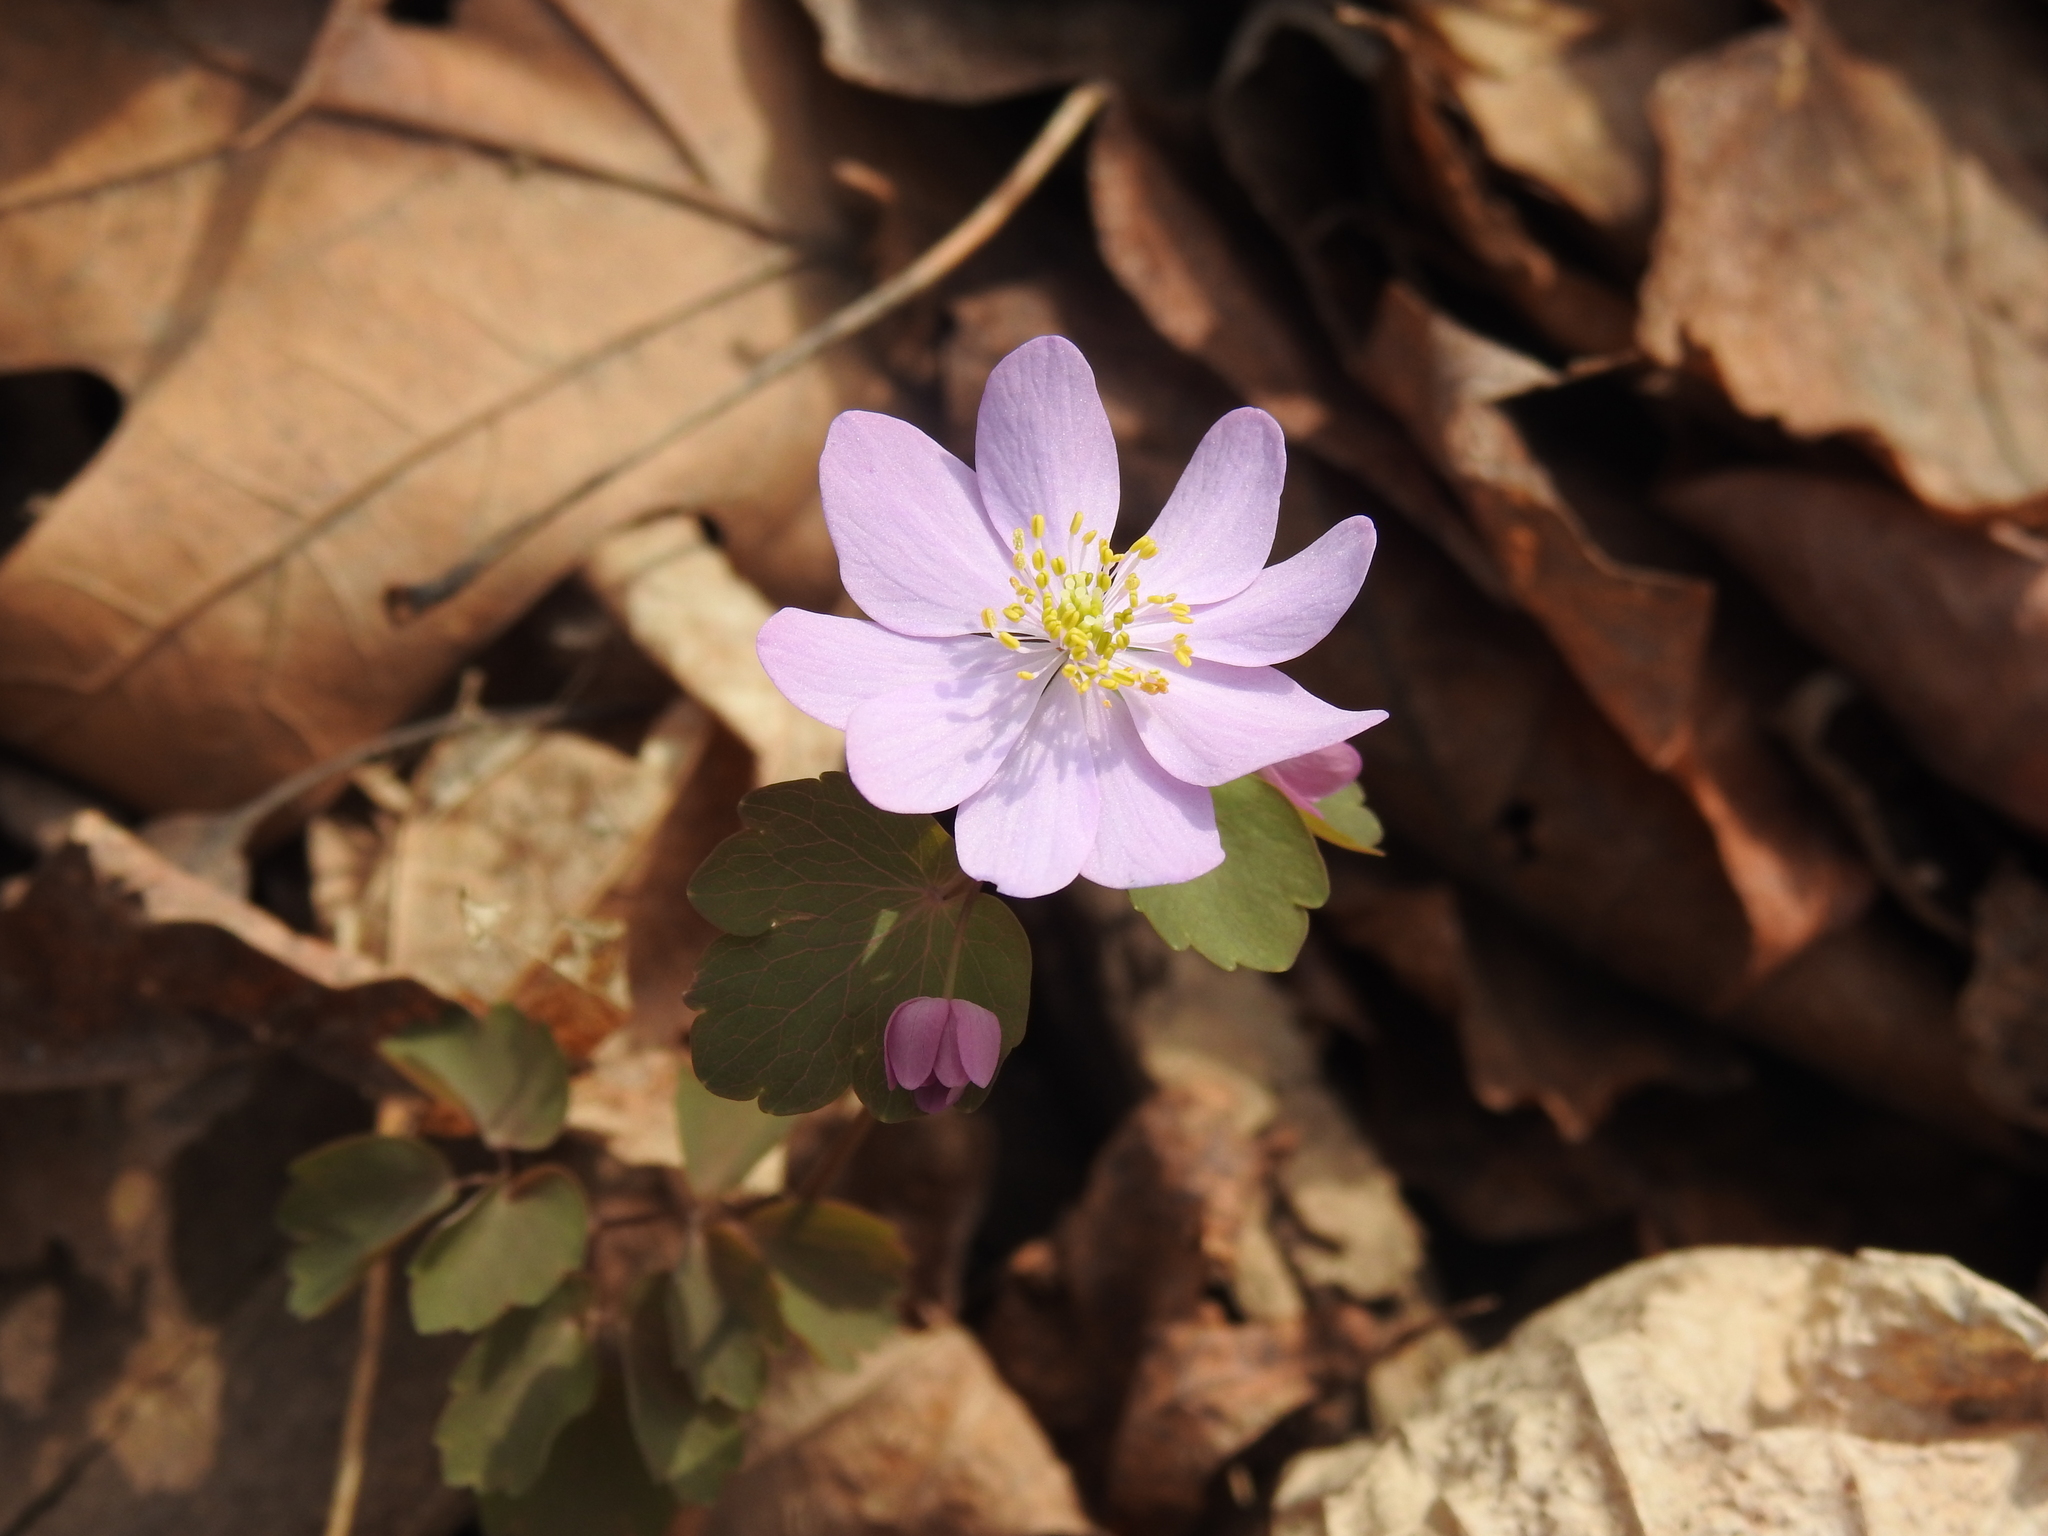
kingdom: Plantae
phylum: Tracheophyta
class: Magnoliopsida
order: Ranunculales
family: Ranunculaceae
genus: Thalictrum
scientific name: Thalictrum thalictroides
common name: Rue-anemone
